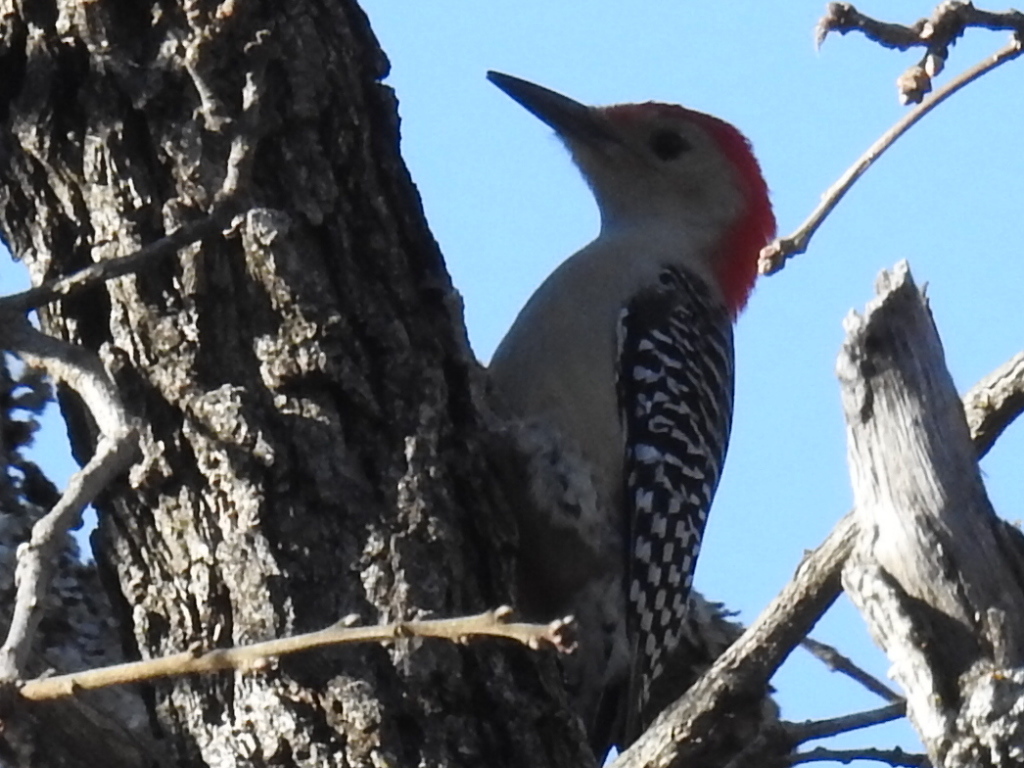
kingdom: Animalia
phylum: Chordata
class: Aves
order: Piciformes
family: Picidae
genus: Melanerpes
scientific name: Melanerpes carolinus
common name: Red-bellied woodpecker
